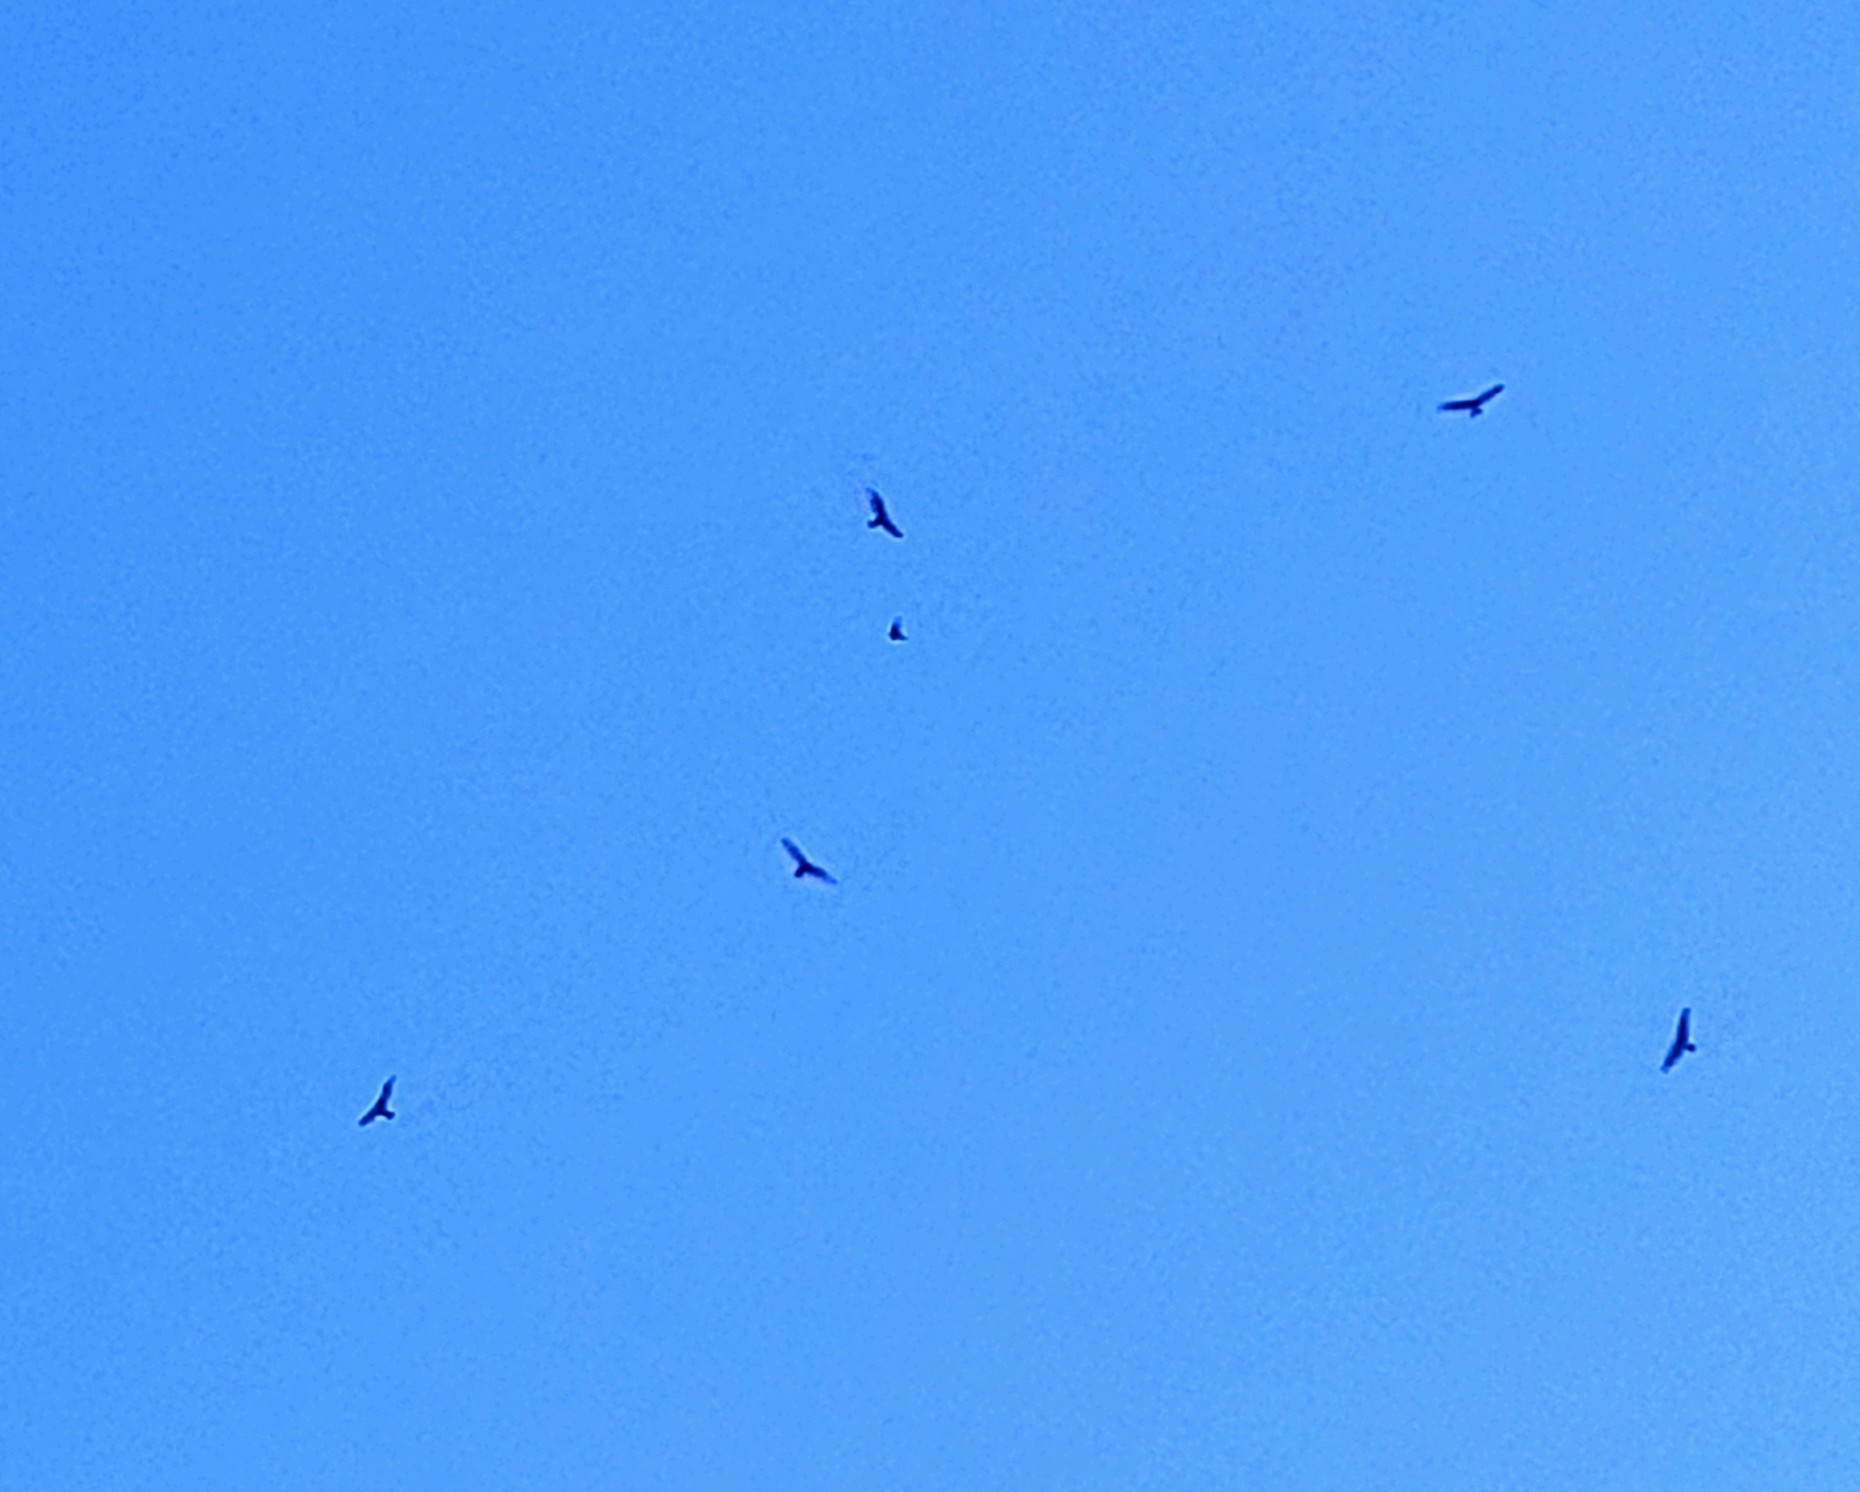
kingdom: Animalia
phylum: Chordata
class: Aves
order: Accipitriformes
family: Cathartidae
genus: Cathartes
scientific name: Cathartes aura
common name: Turkey vulture
